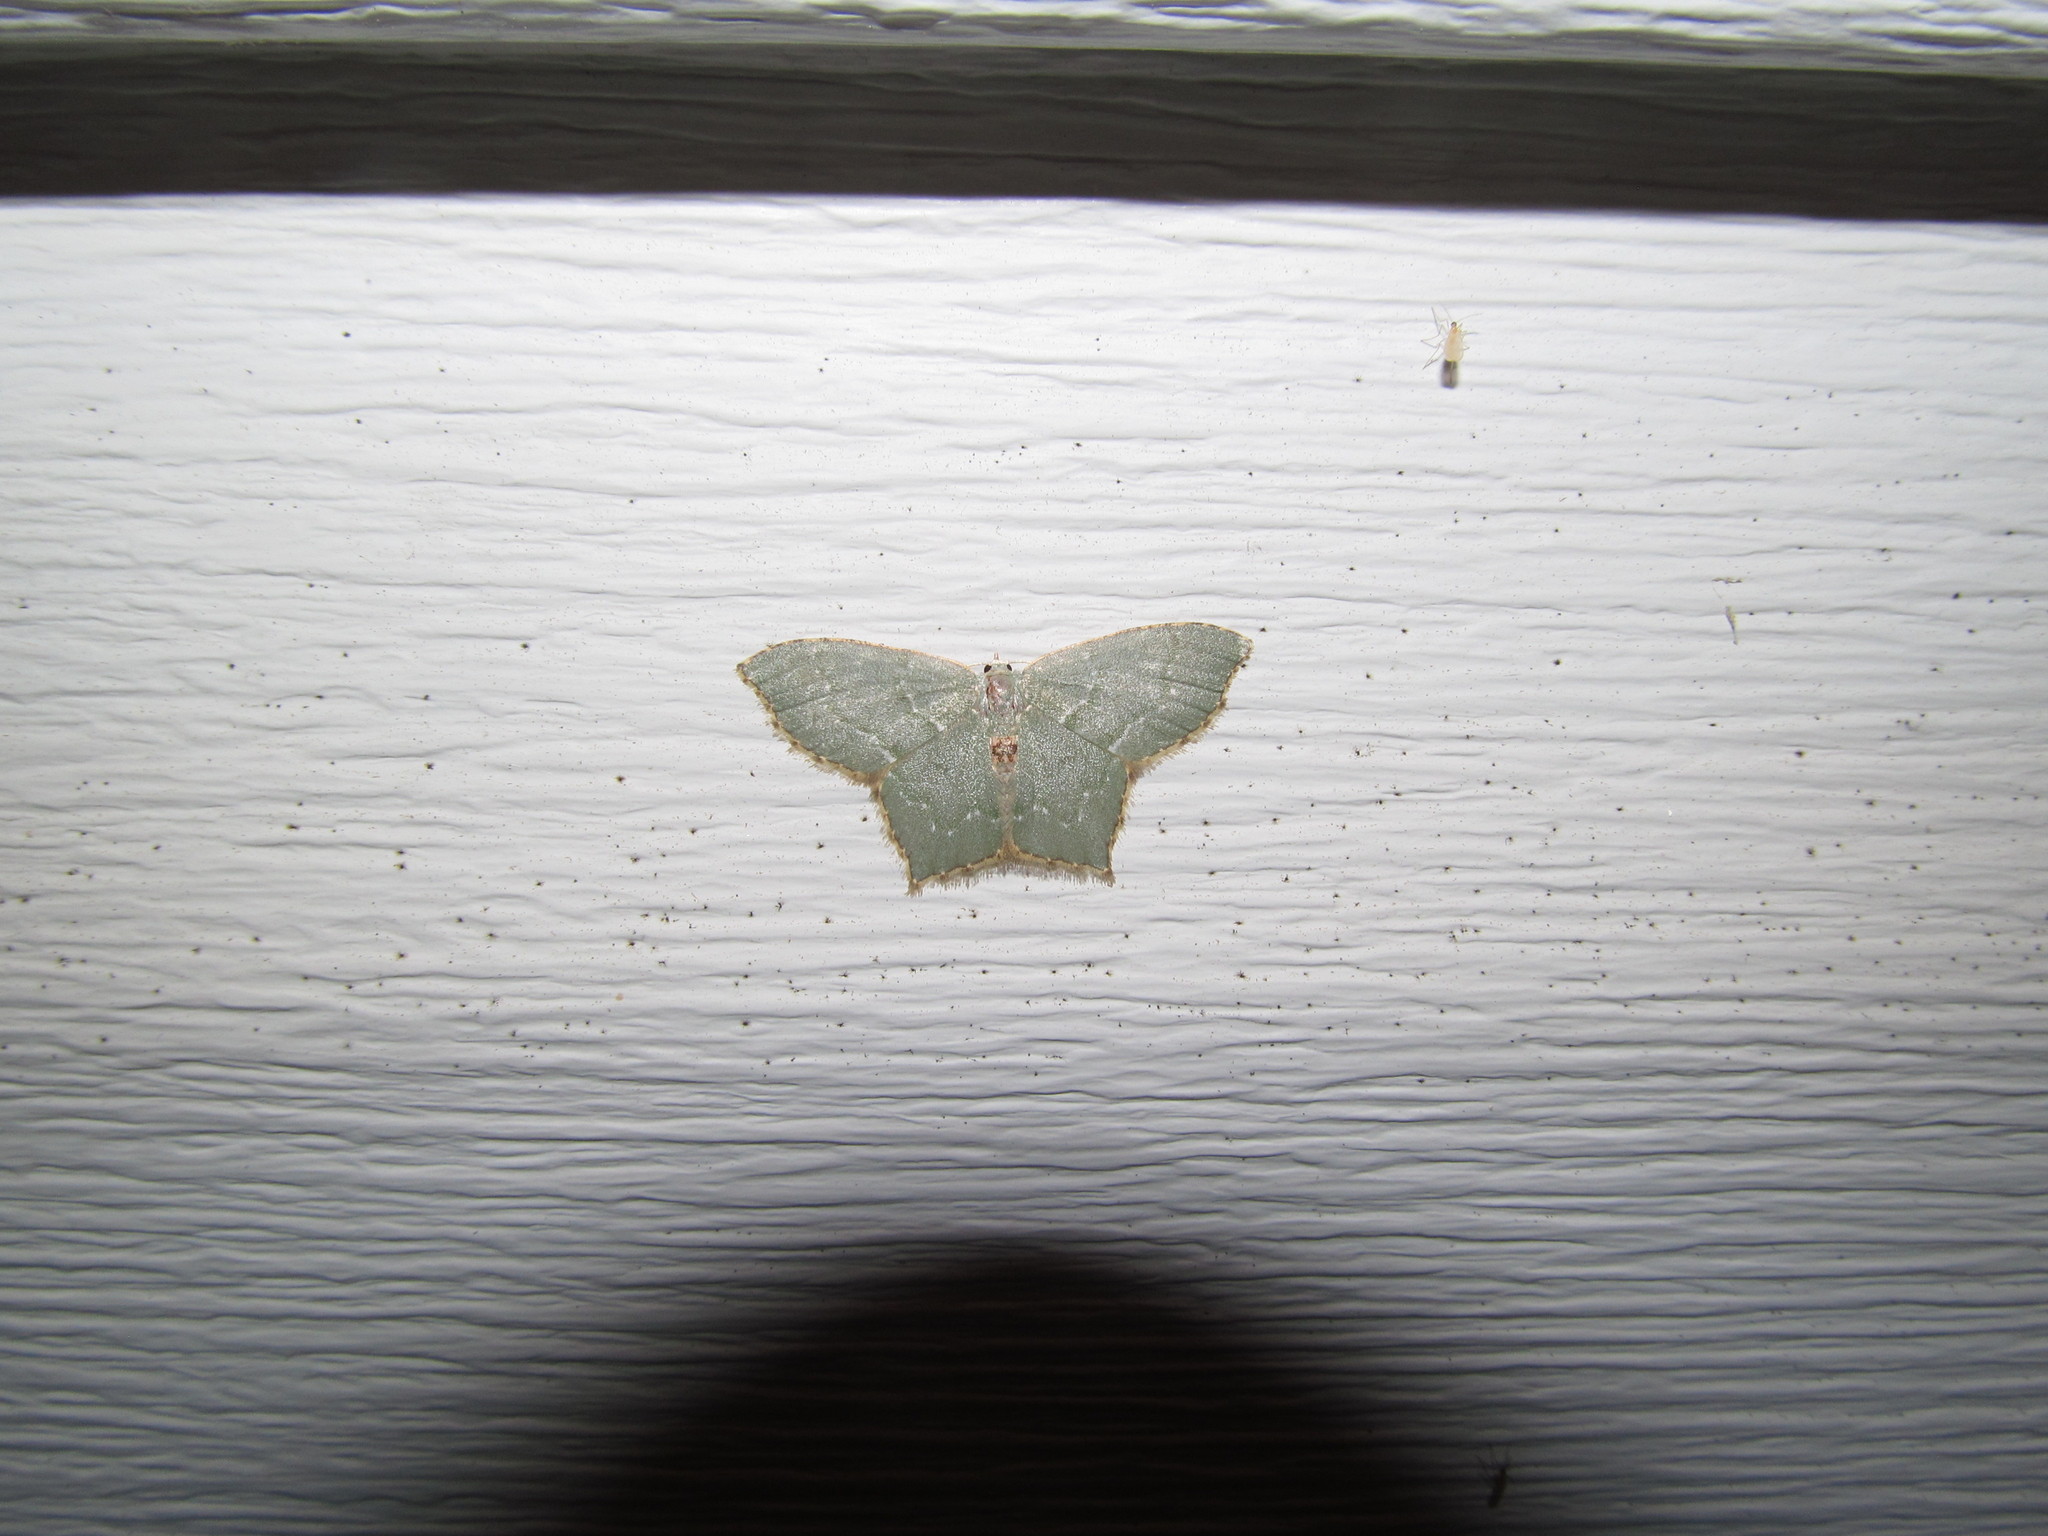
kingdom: Animalia
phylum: Arthropoda
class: Insecta
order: Lepidoptera
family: Geometridae
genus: Chloropteryx
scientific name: Chloropteryx tepperaria
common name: Angle winged emerald moth
